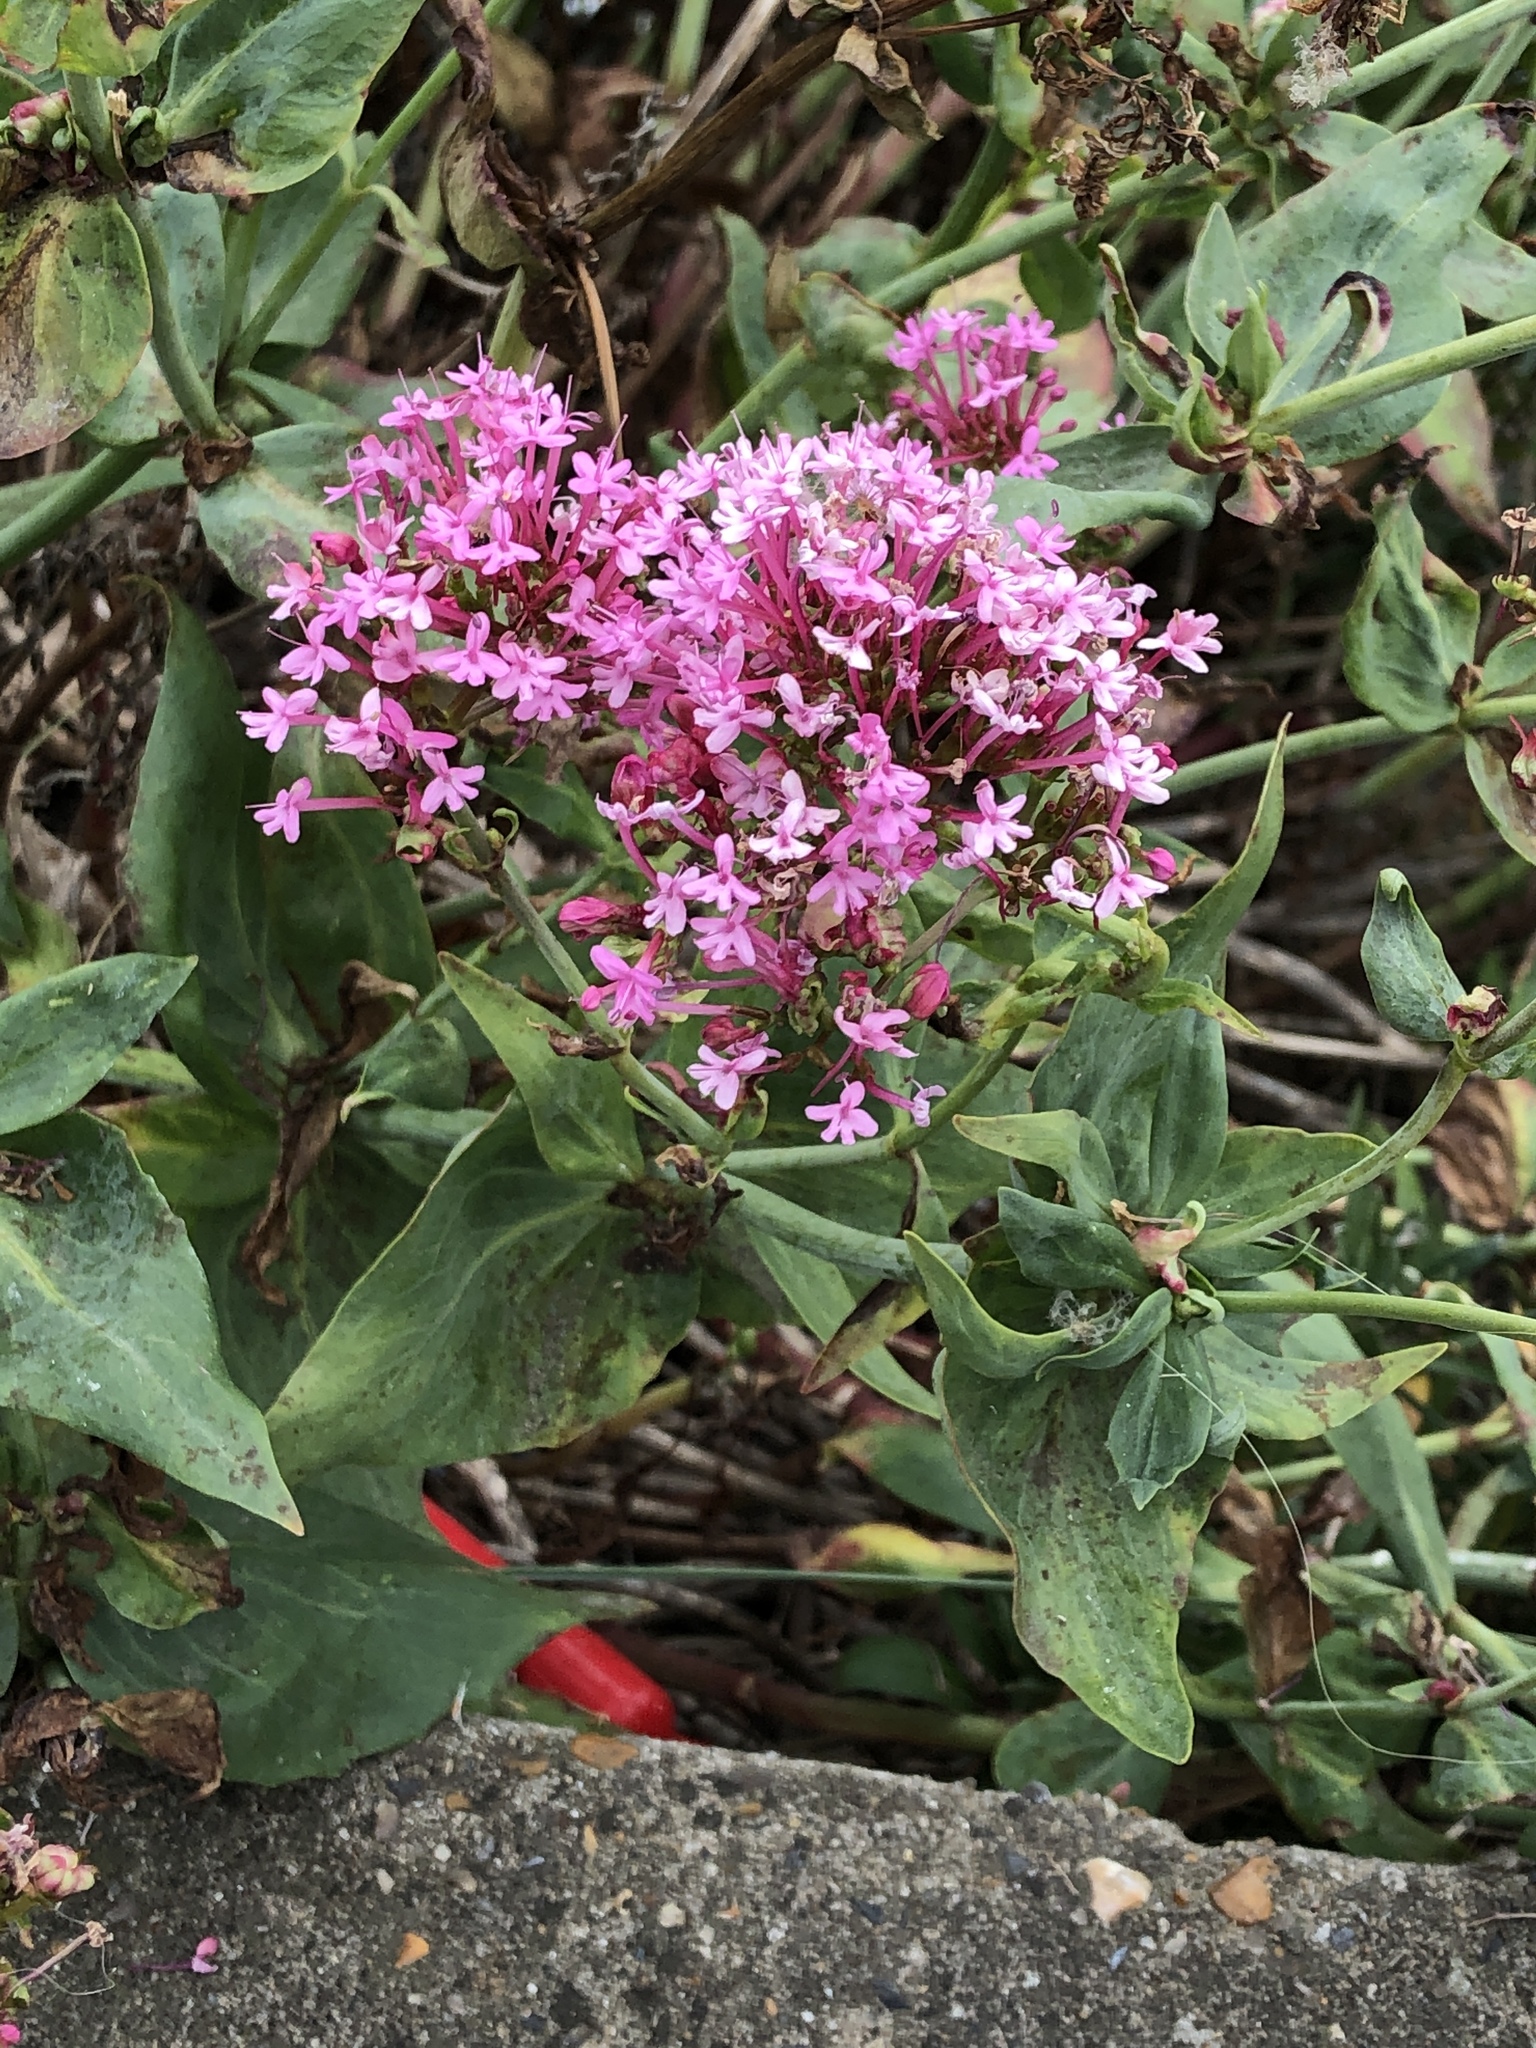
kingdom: Plantae
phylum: Tracheophyta
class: Magnoliopsida
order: Dipsacales
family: Caprifoliaceae
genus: Centranthus
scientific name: Centranthus ruber
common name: Red valerian
